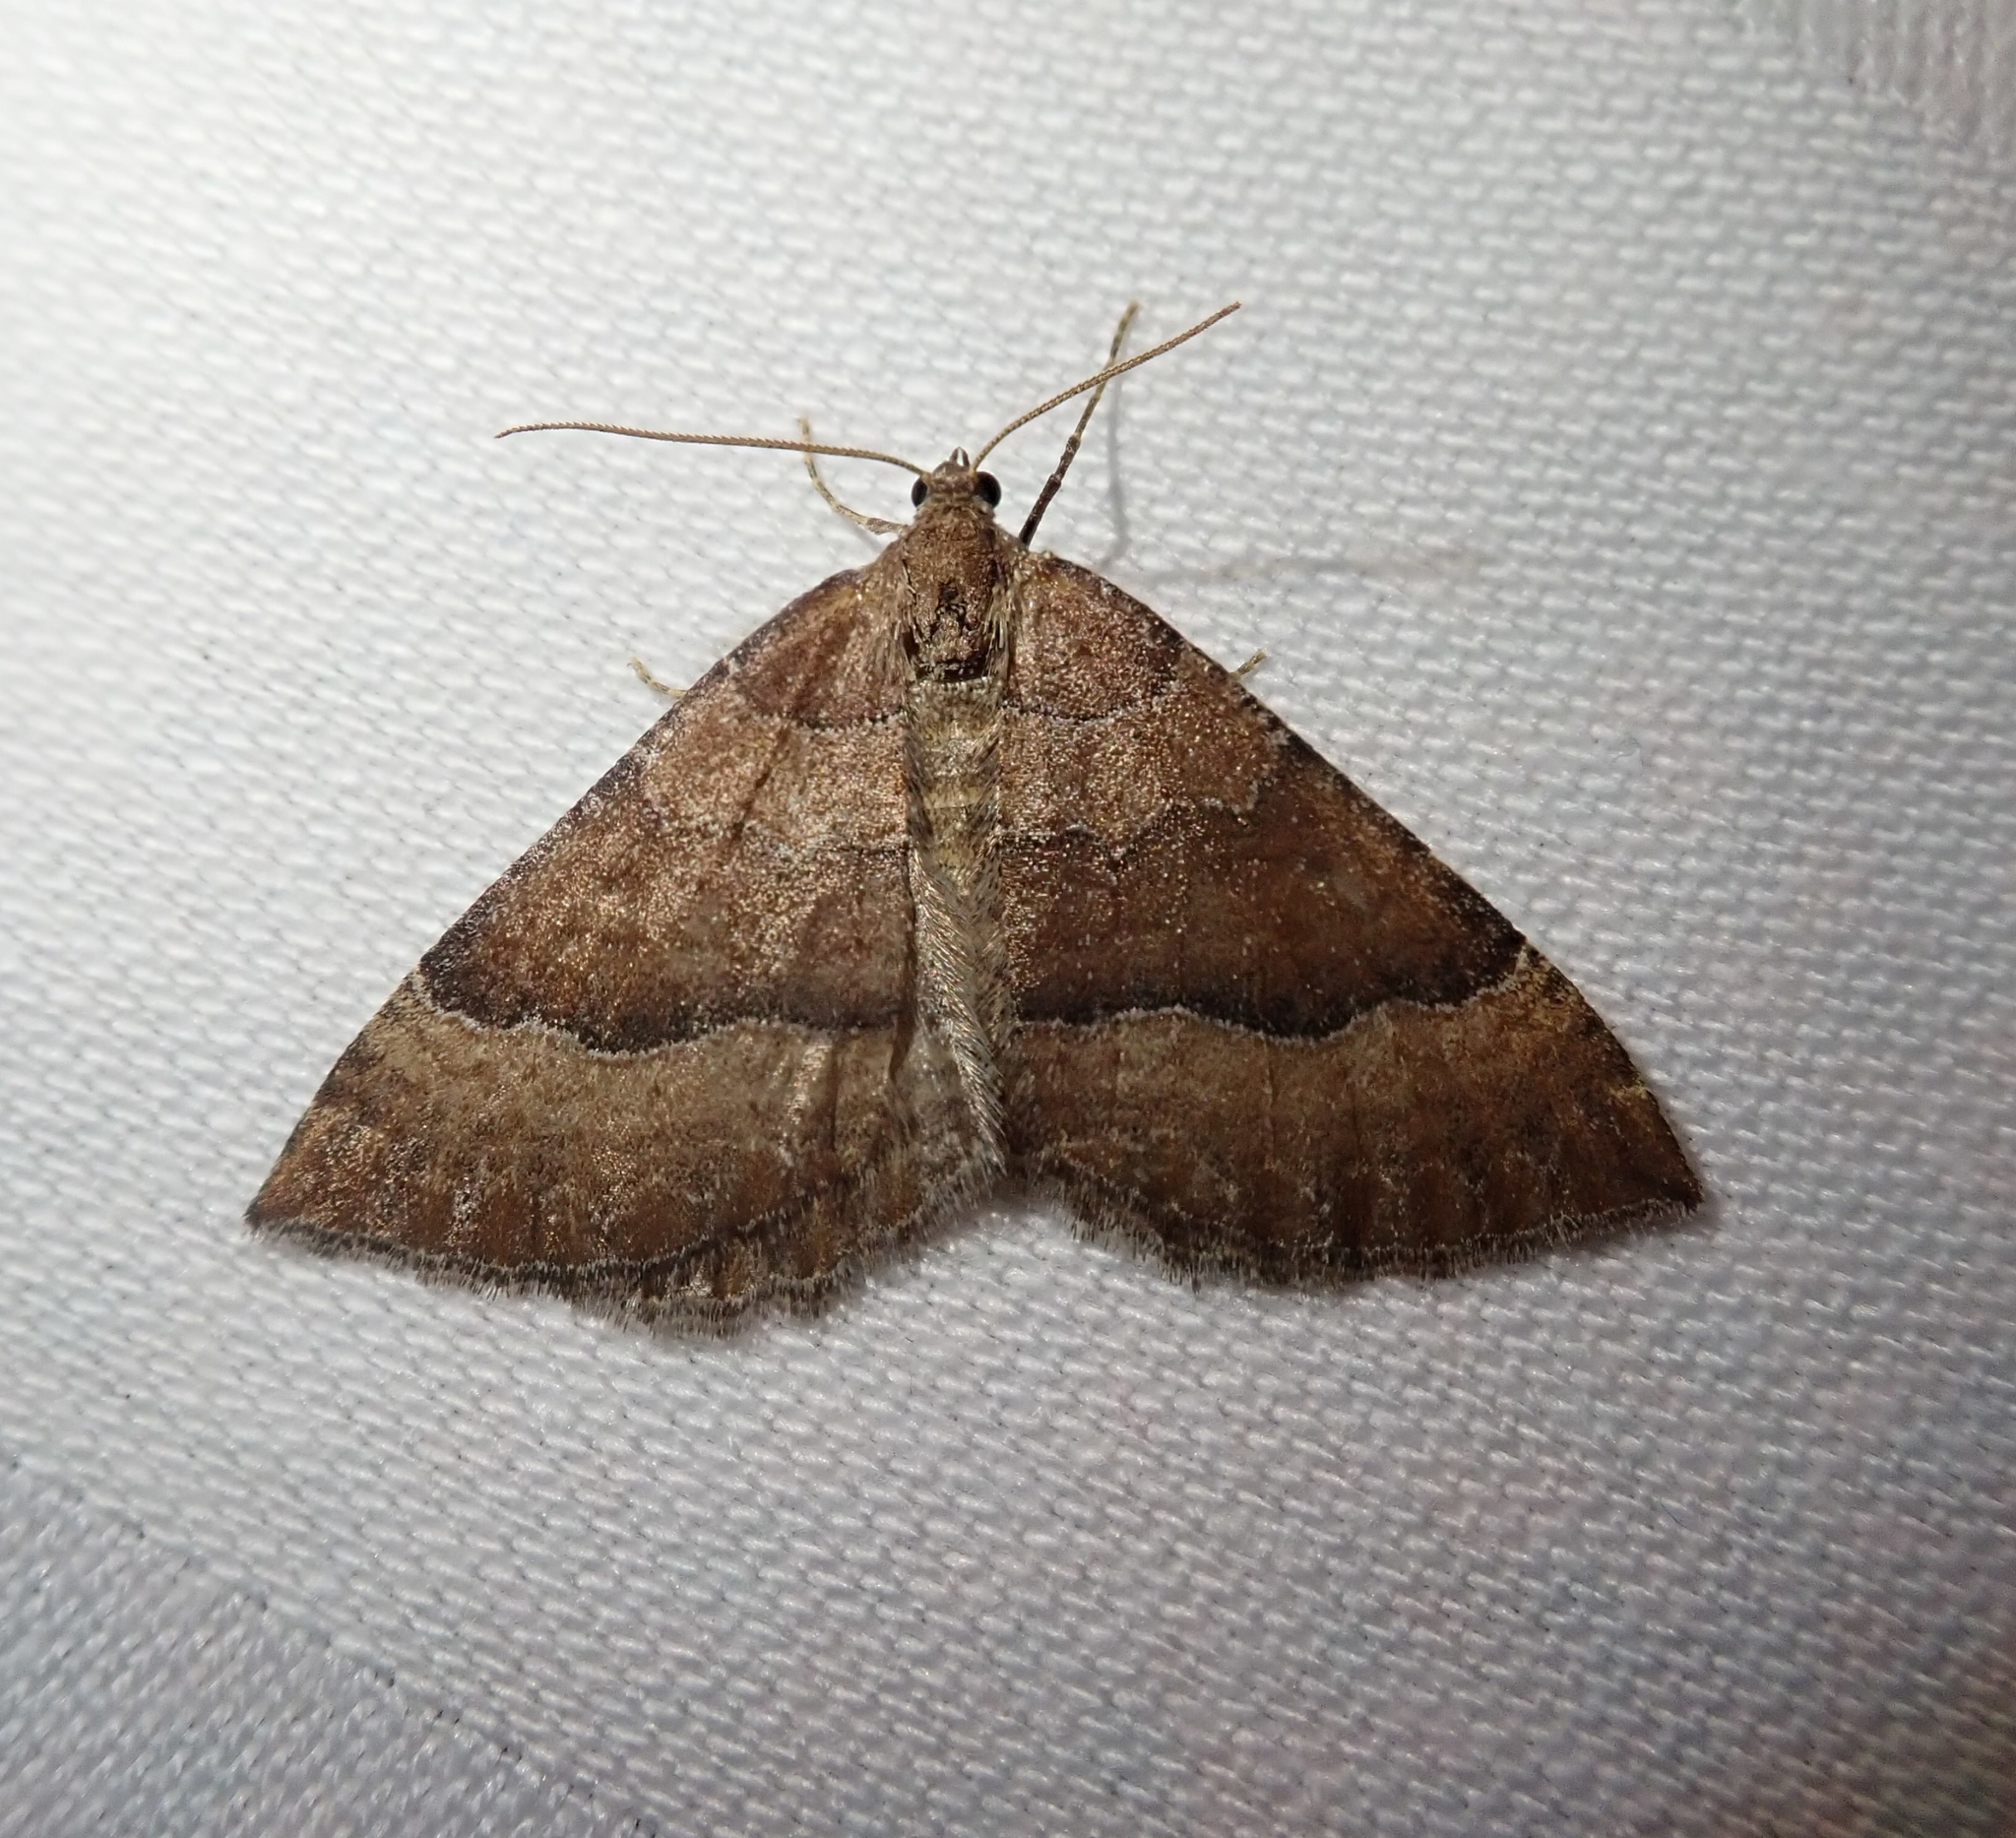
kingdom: Animalia
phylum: Arthropoda
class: Insecta
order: Lepidoptera
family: Geometridae
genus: Larentia
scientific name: Larentia clavaria
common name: Mallow
